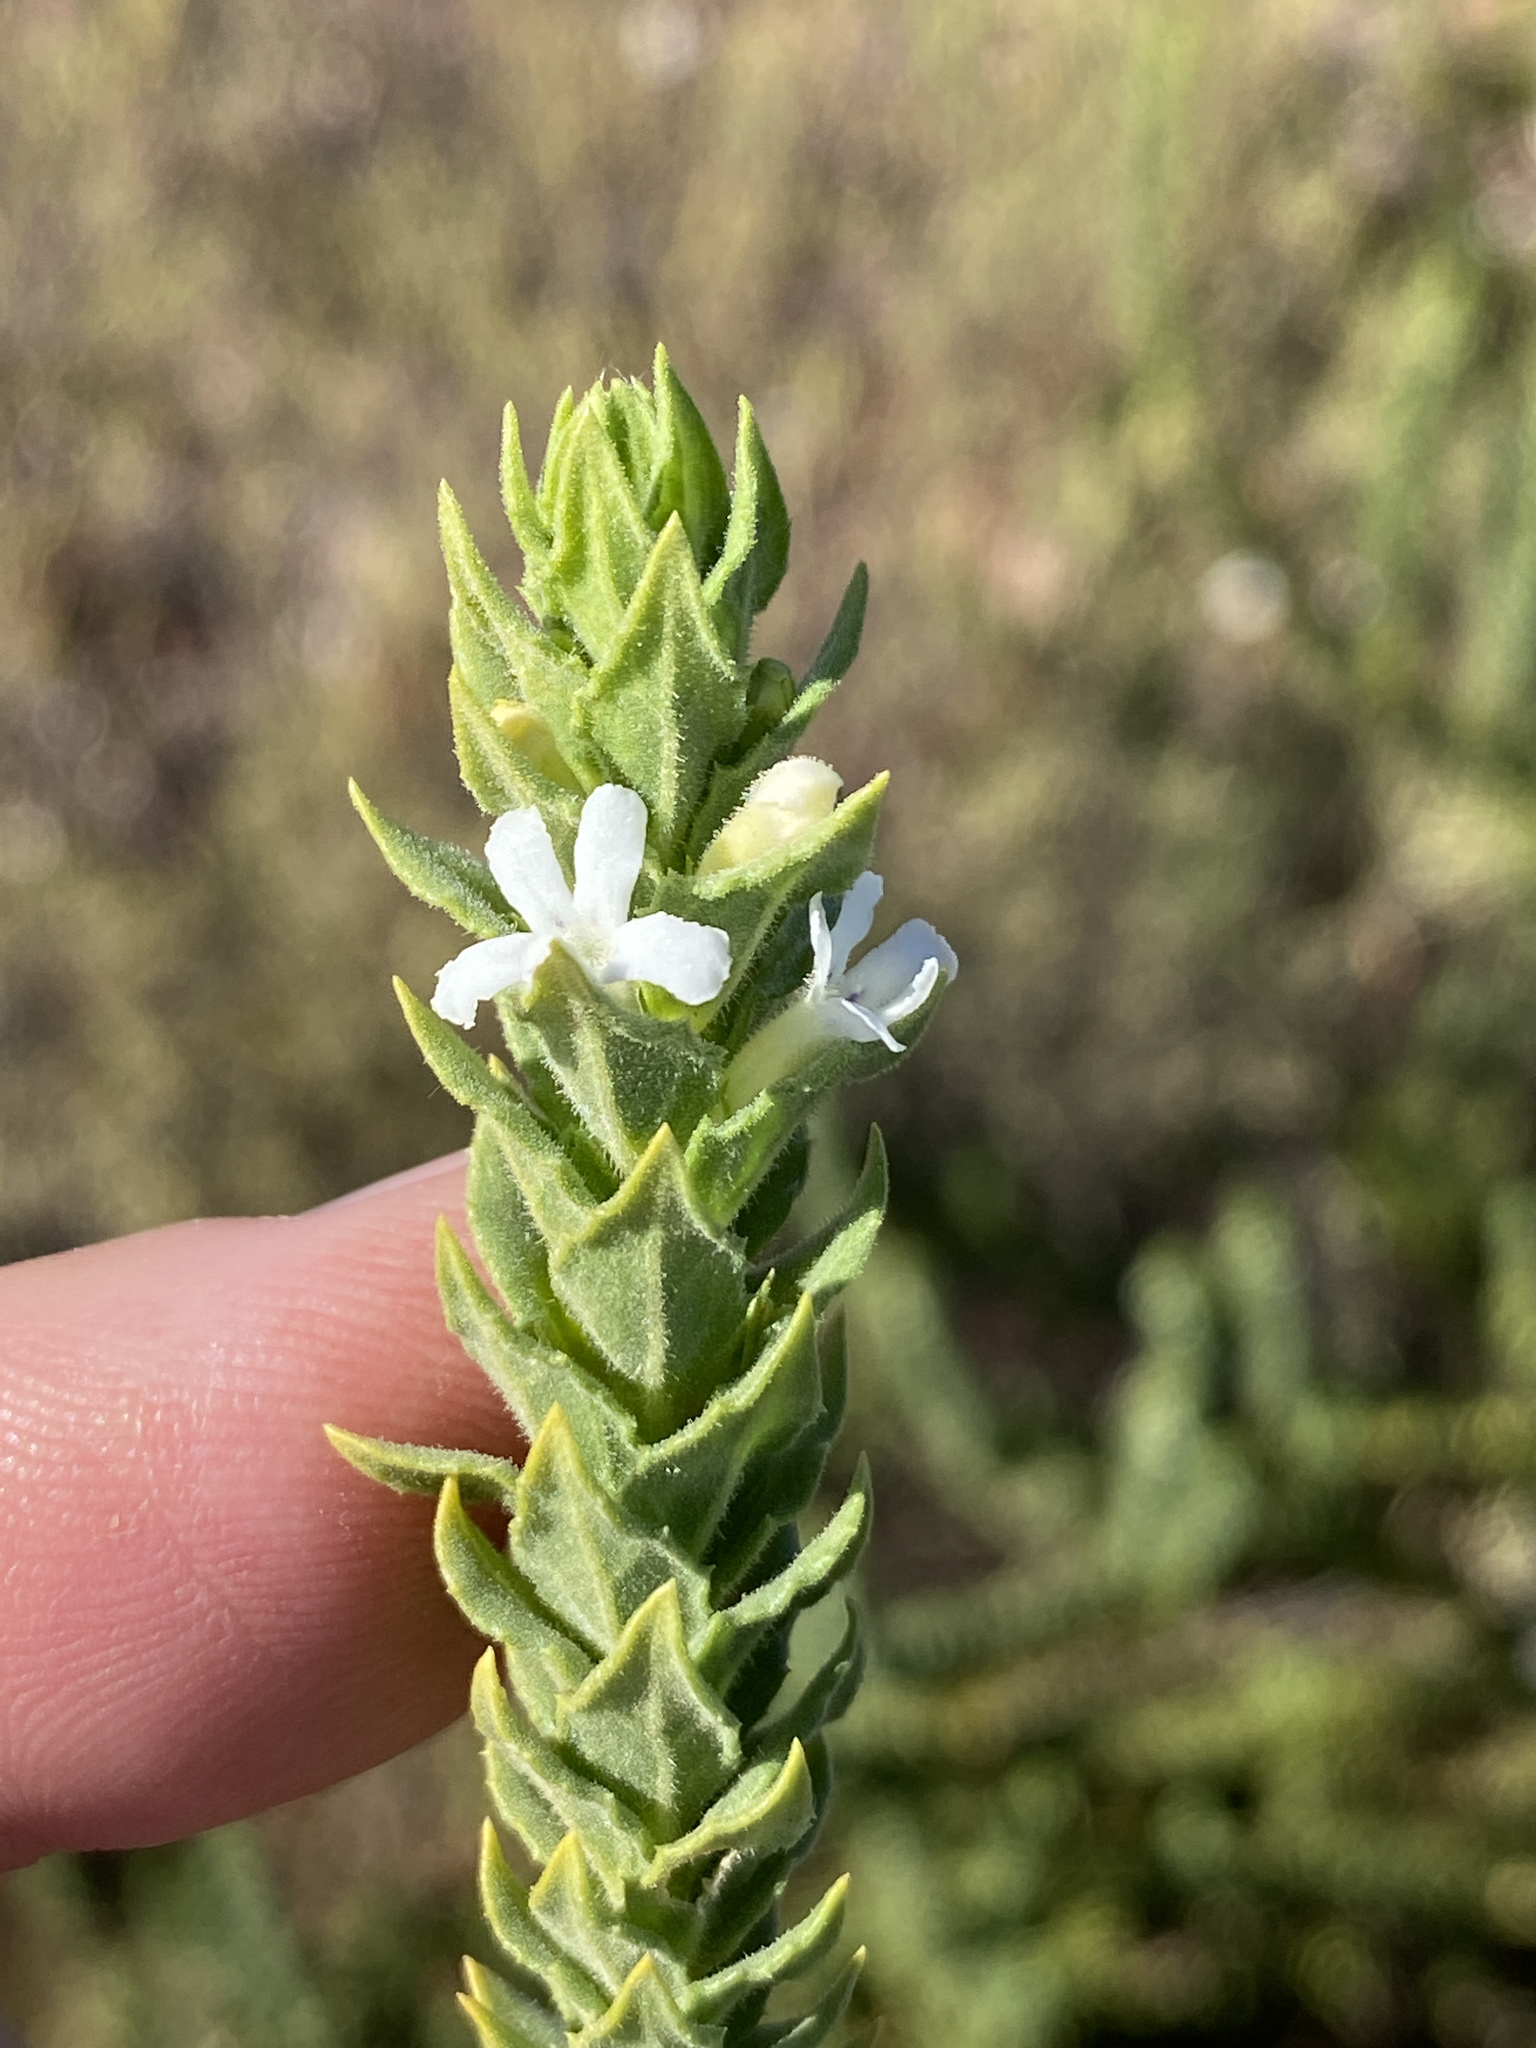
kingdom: Plantae
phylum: Tracheophyta
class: Magnoliopsida
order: Lamiales
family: Scrophulariaceae
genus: Oftia
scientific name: Oftia africana
